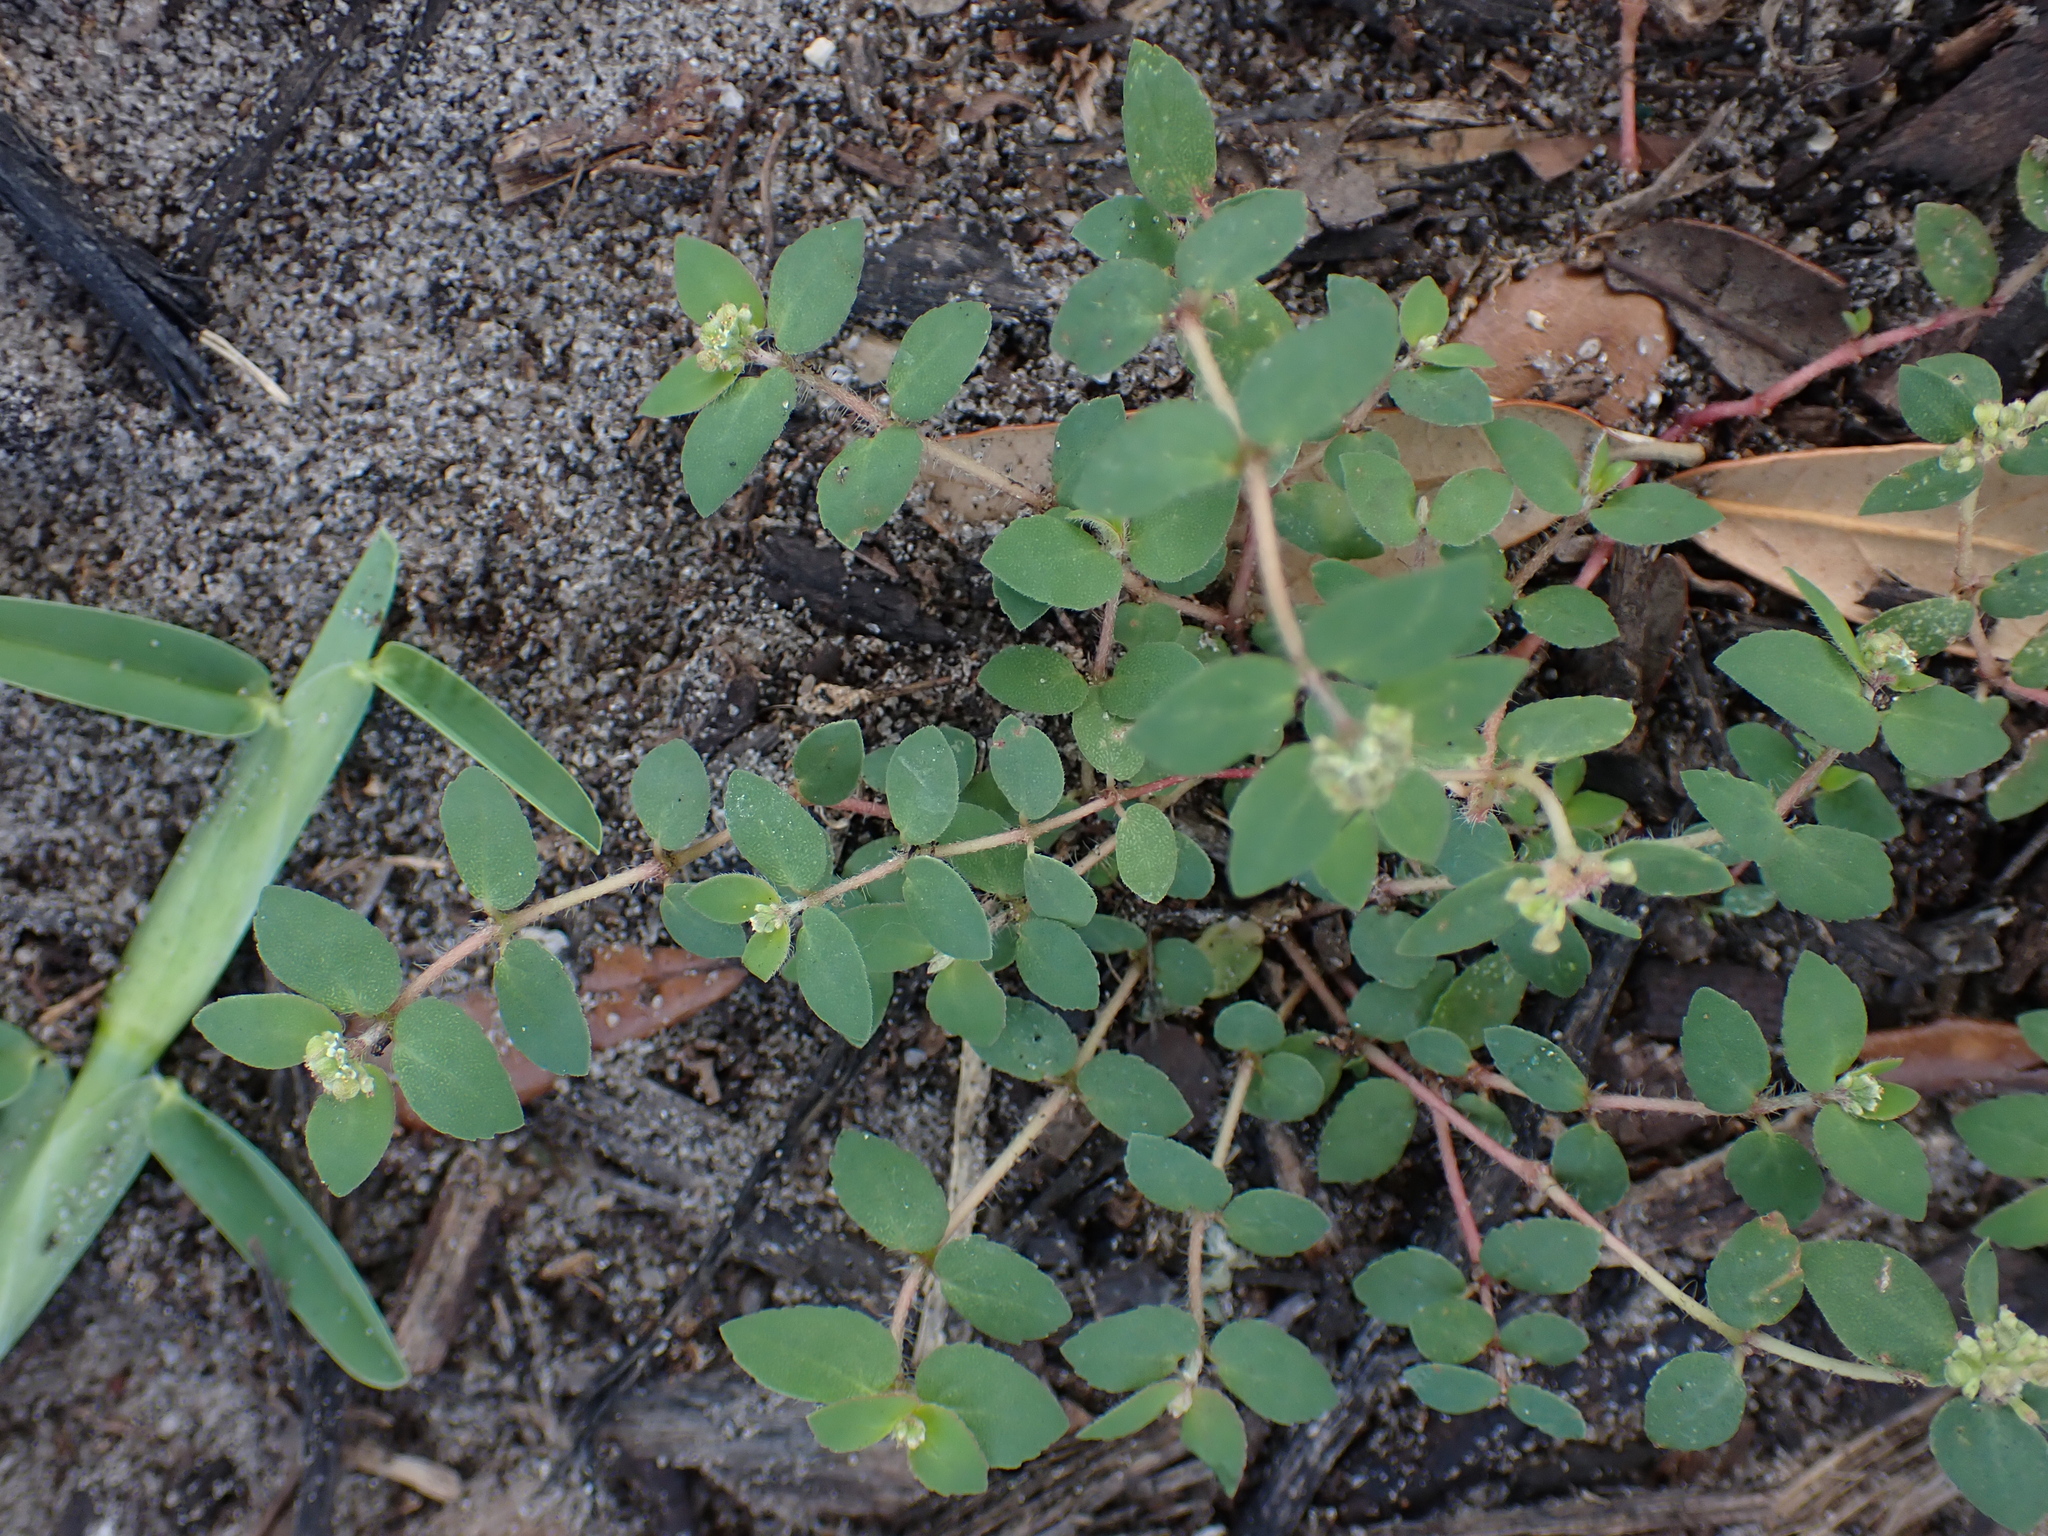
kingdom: Plantae
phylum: Tracheophyta
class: Magnoliopsida
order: Malpighiales
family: Euphorbiaceae
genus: Euphorbia
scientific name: Euphorbia ophthalmica
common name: Florida hammock sandmat
